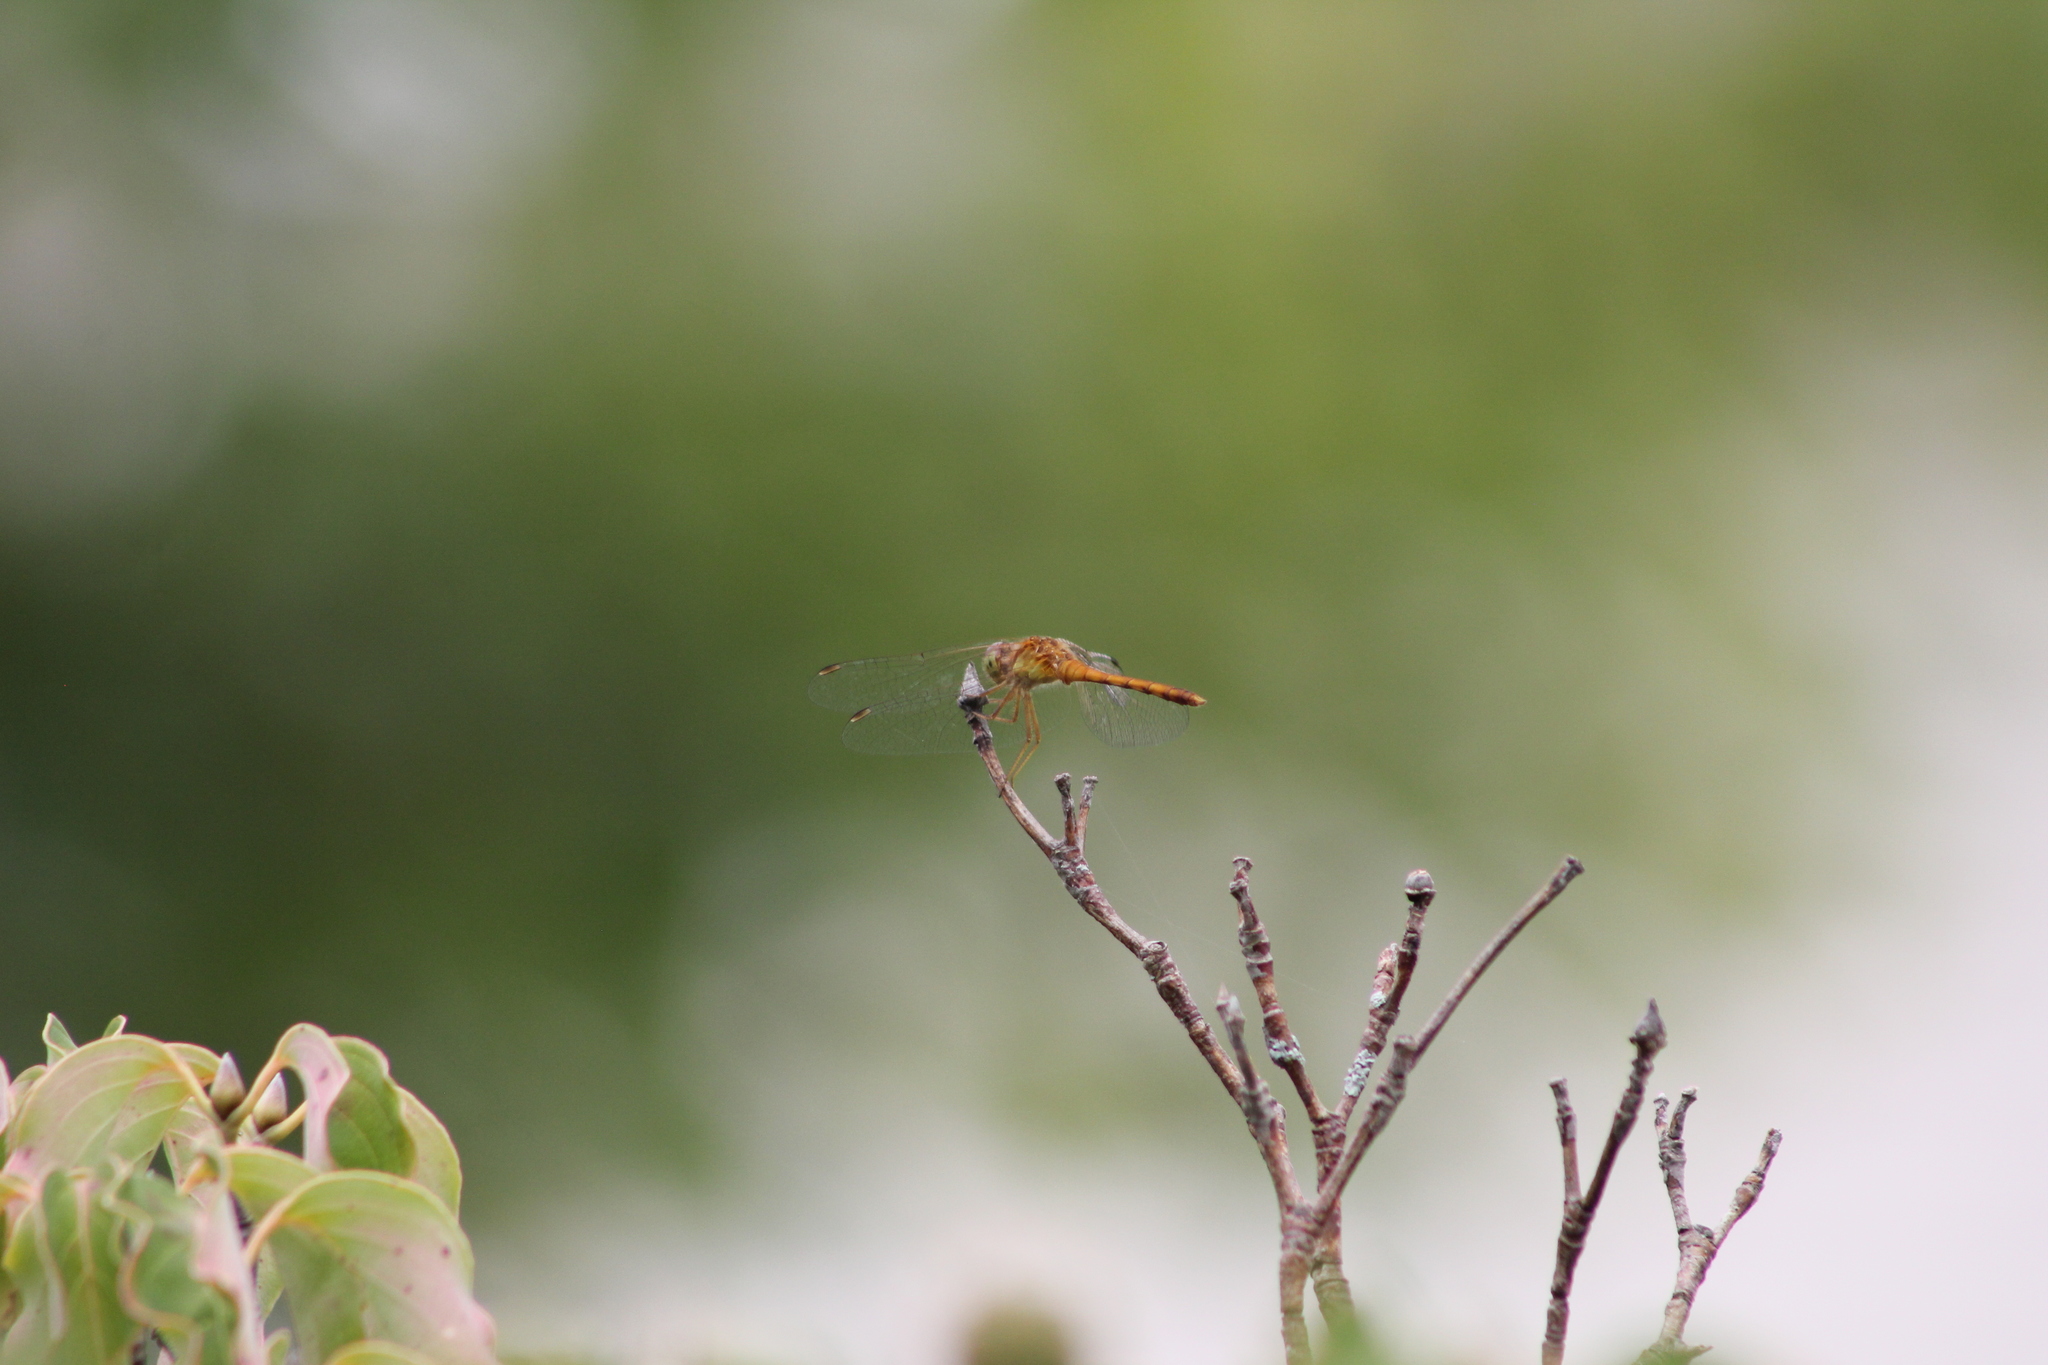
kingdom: Animalia
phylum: Arthropoda
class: Insecta
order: Odonata
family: Libellulidae
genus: Sympetrum
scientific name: Sympetrum vicinum
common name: Autumn meadowhawk
